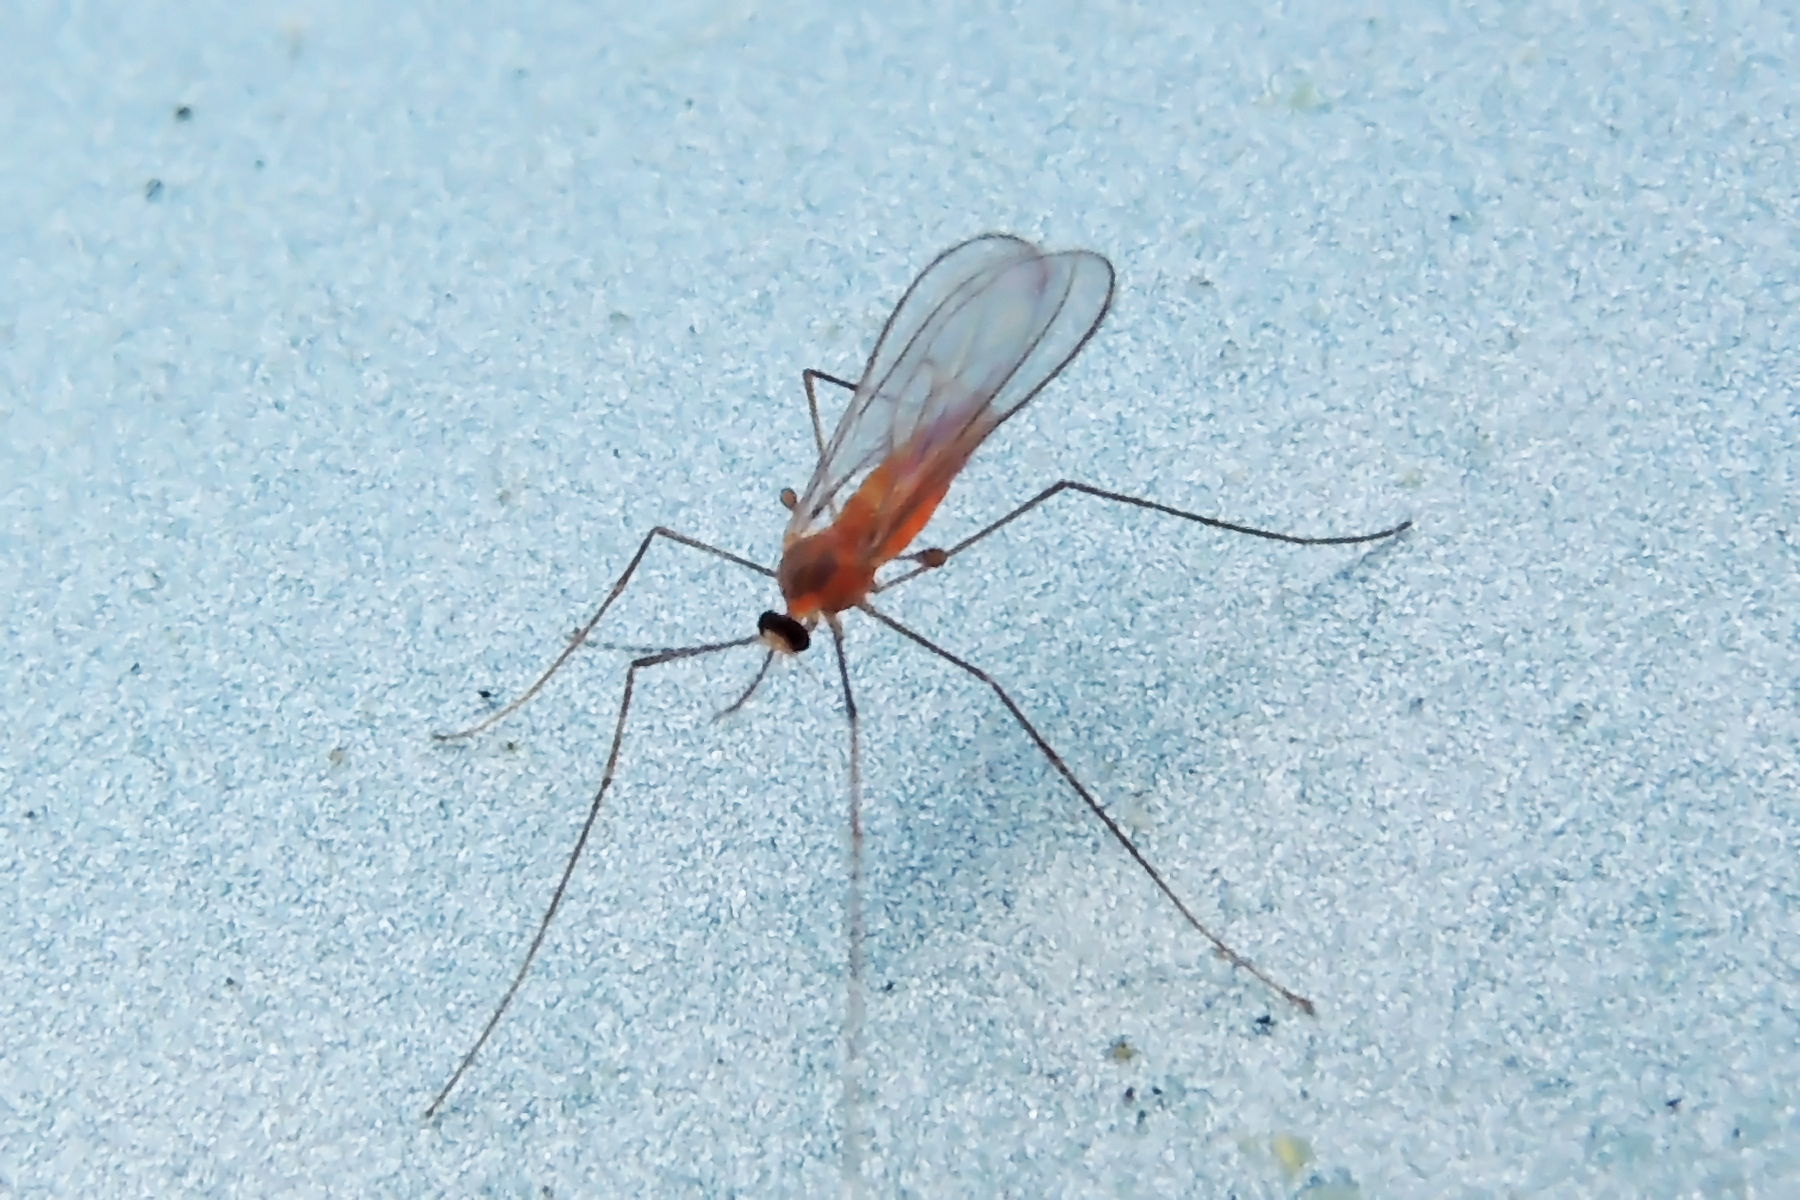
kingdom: Animalia
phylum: Arthropoda
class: Insecta
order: Diptera
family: Cecidomyiidae
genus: Monarthropalpus
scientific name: Monarthropalpus flavus
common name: Boxwood leafminer
